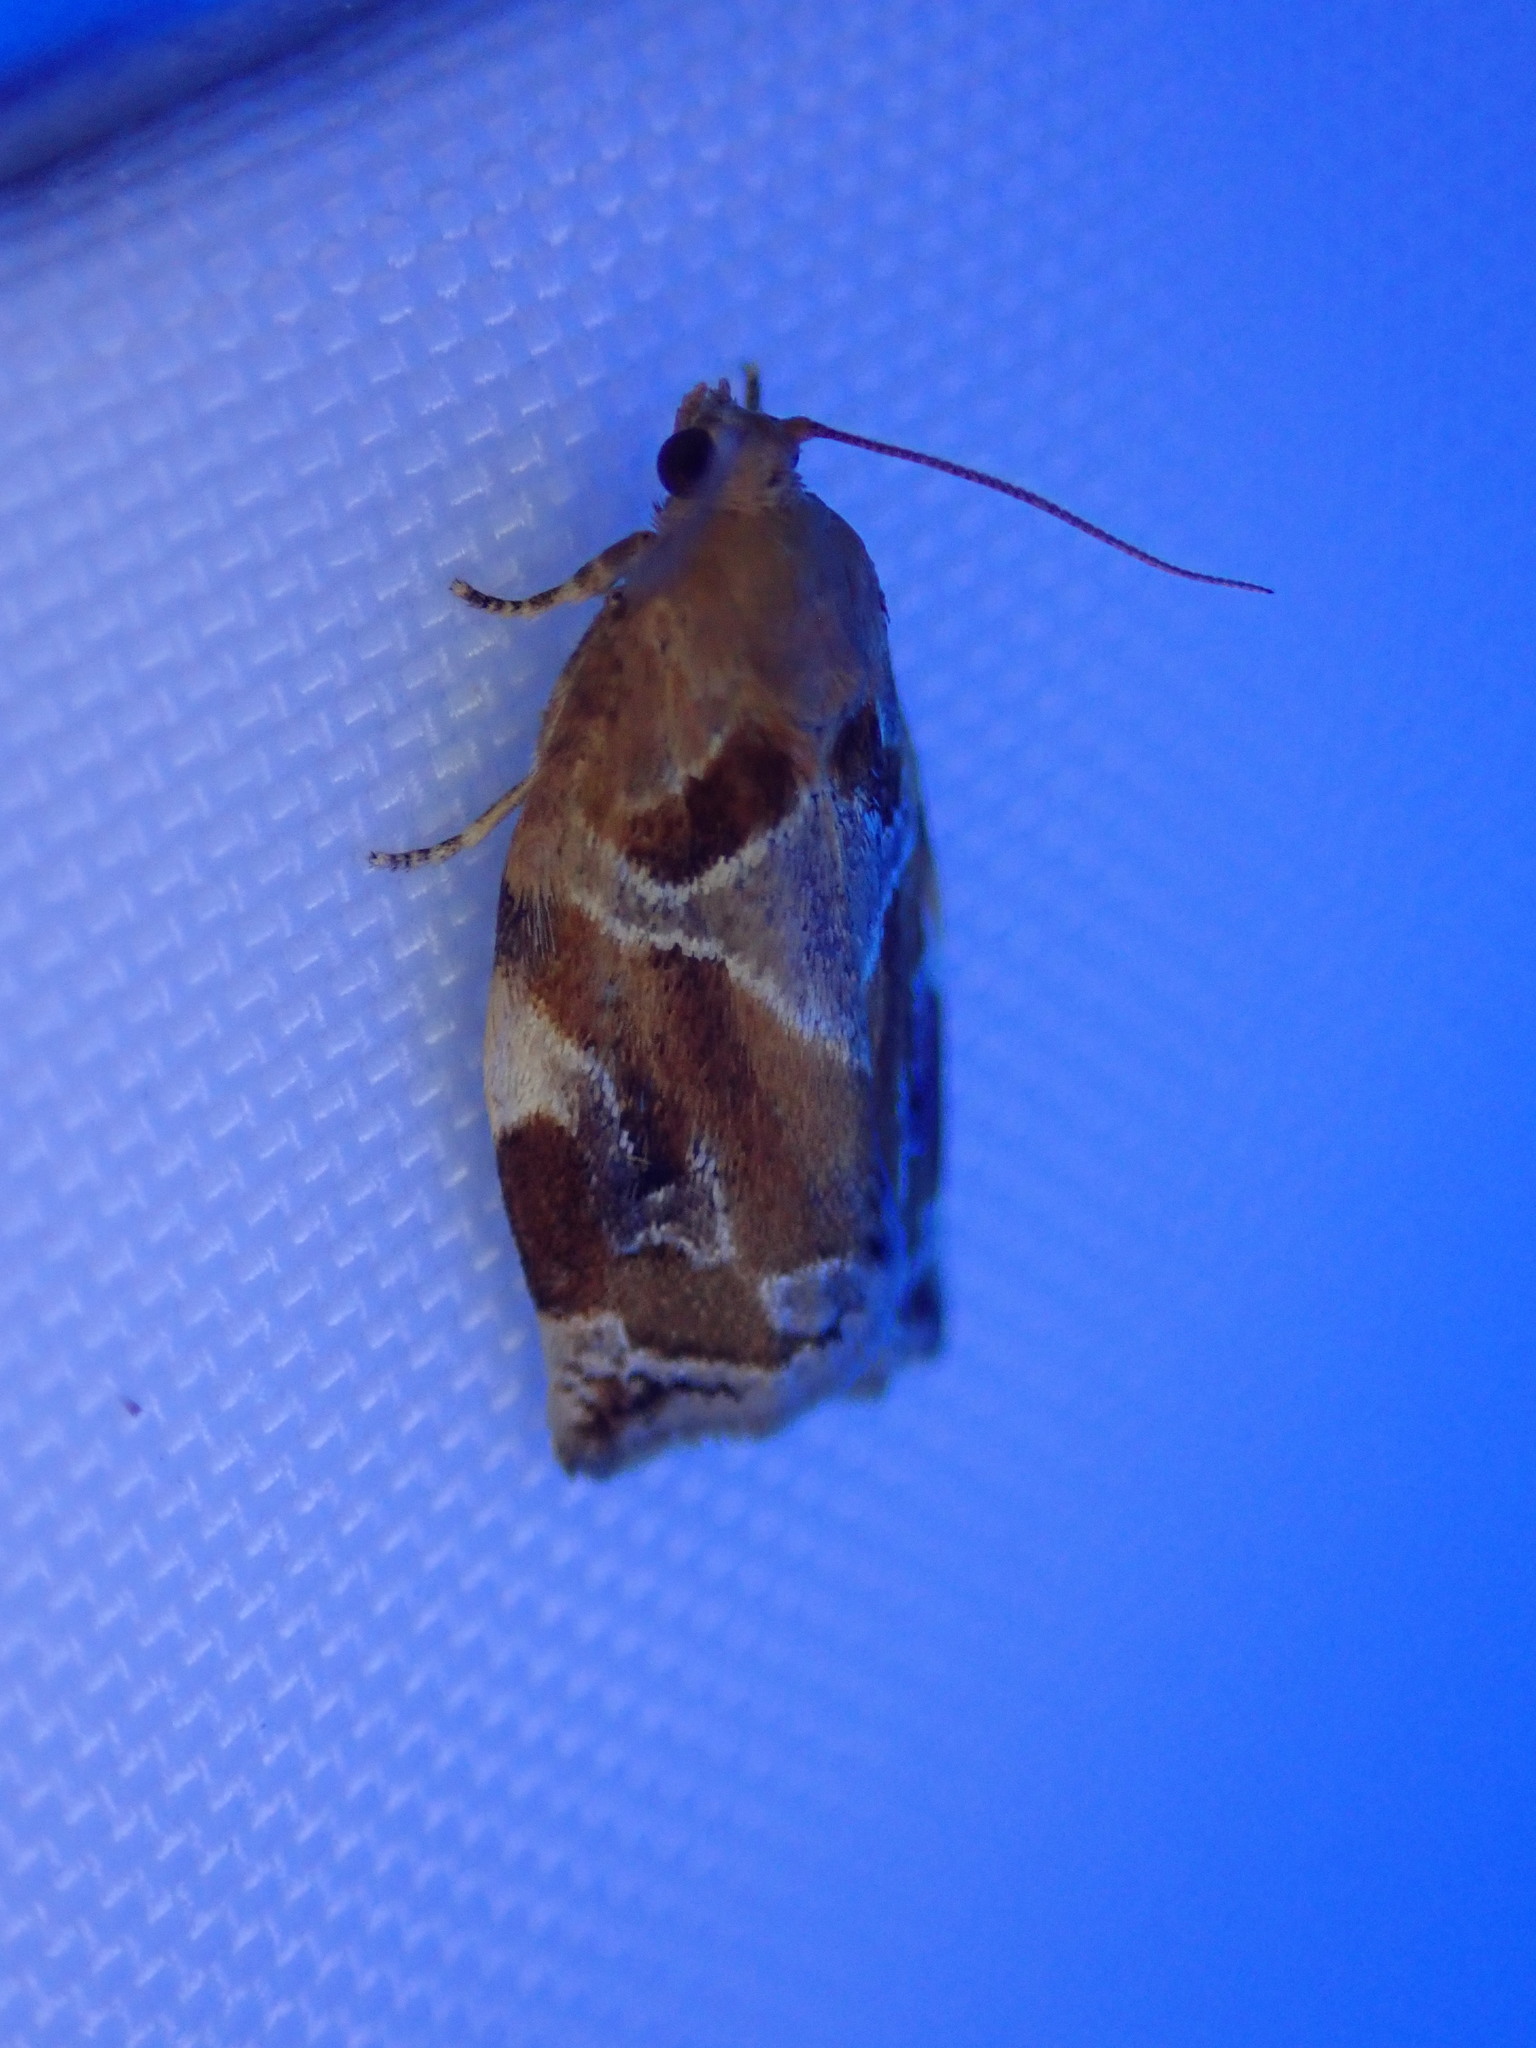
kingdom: Animalia
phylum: Arthropoda
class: Insecta
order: Lepidoptera
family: Tortricidae
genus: Archips
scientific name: Archips xylosteana
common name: Variegated golden tortrix
